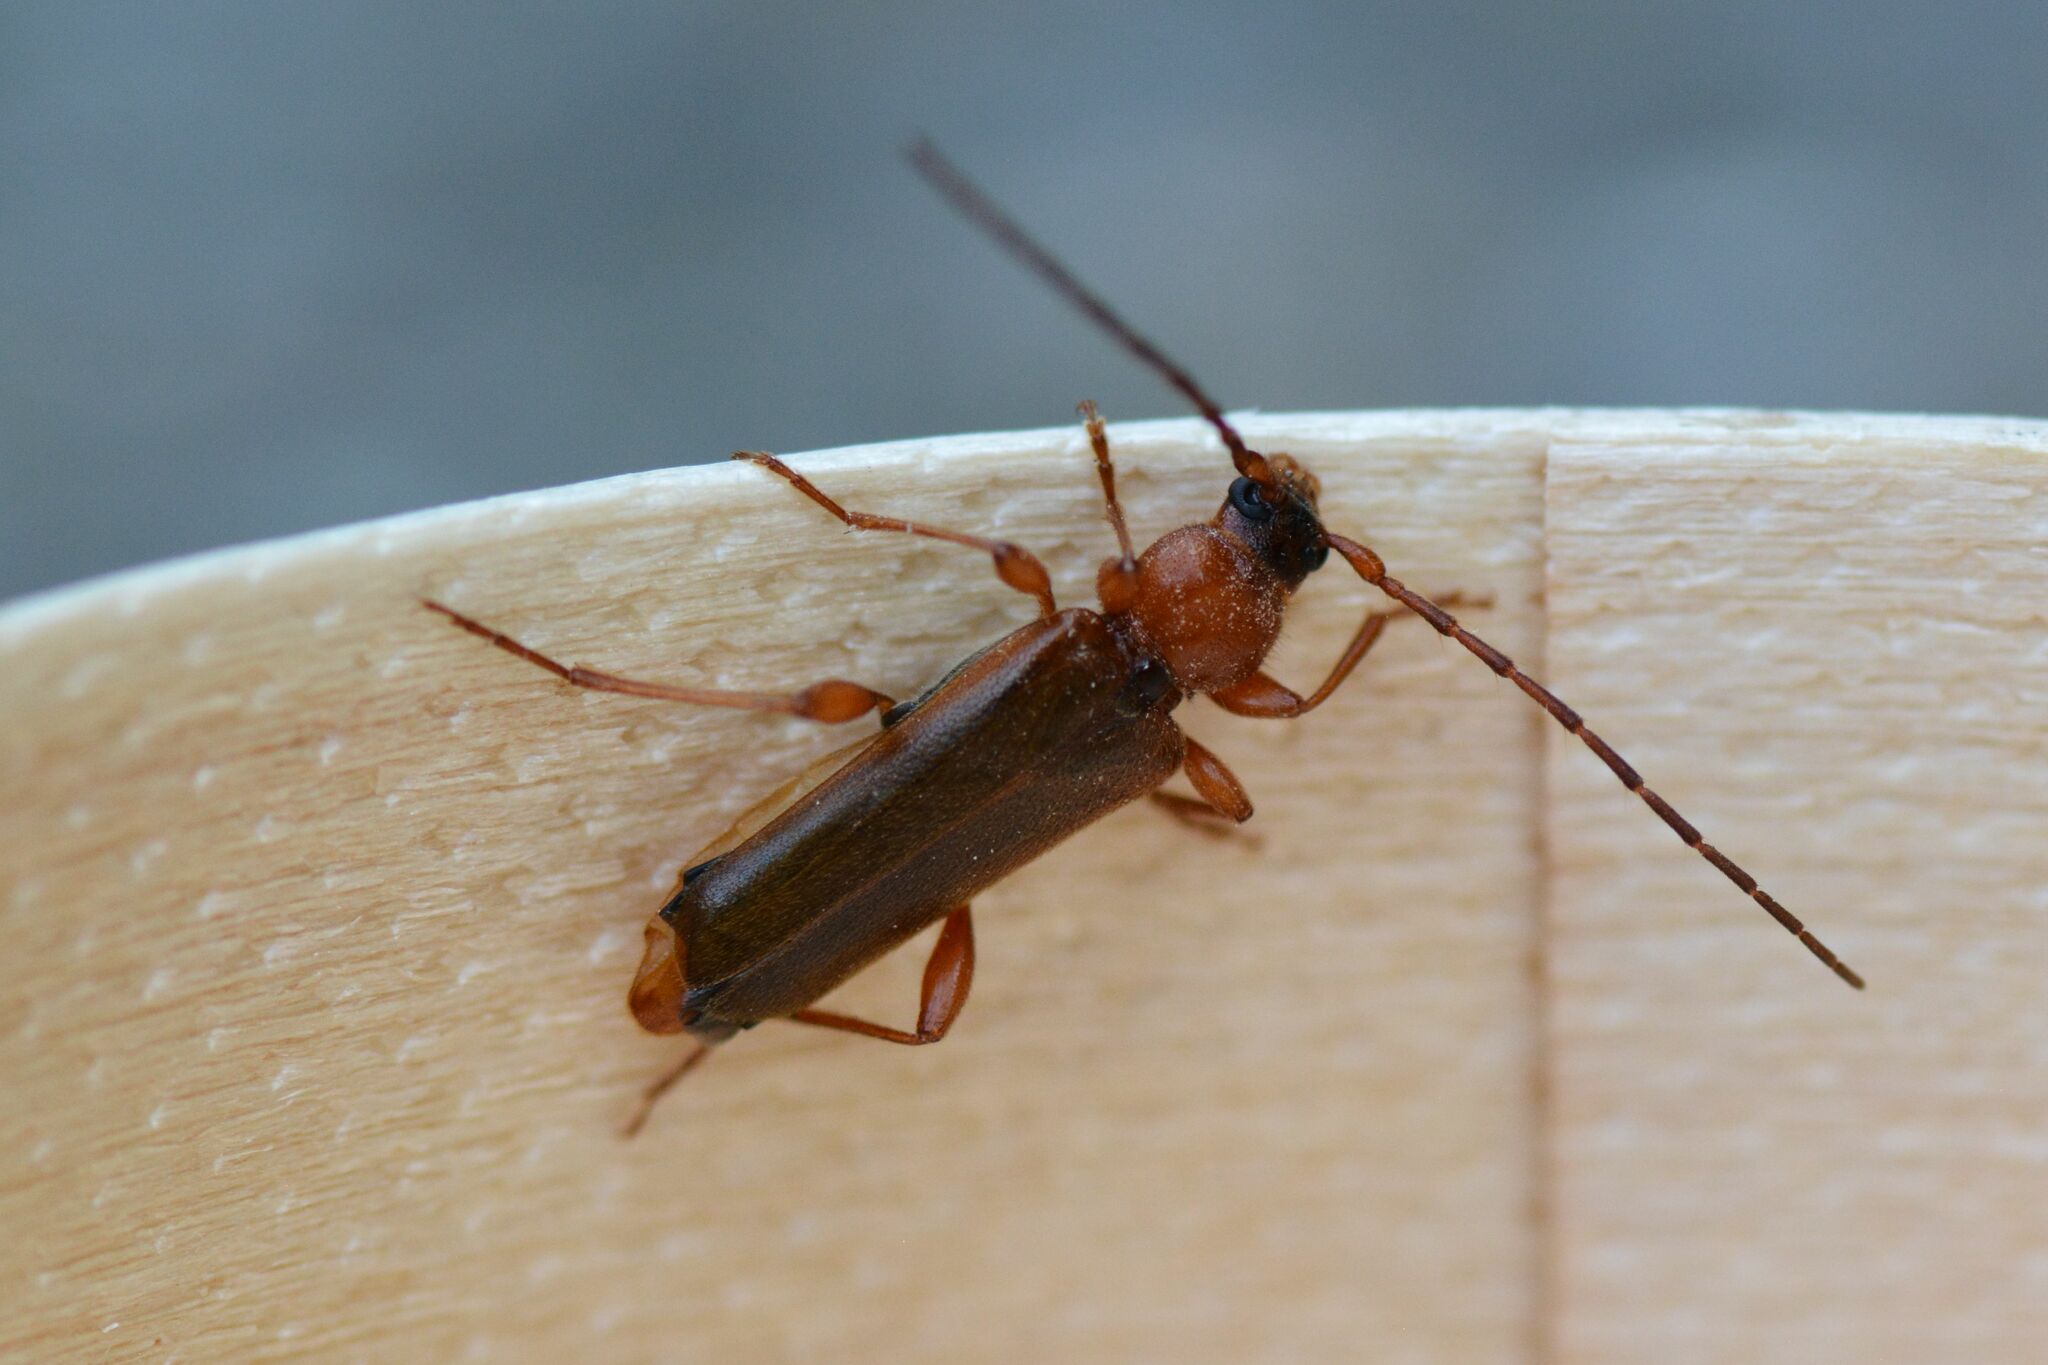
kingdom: Animalia
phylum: Arthropoda
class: Insecta
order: Coleoptera
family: Cerambycidae
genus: Phymatodes
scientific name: Phymatodes testaceus
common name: Long-horned beetle
